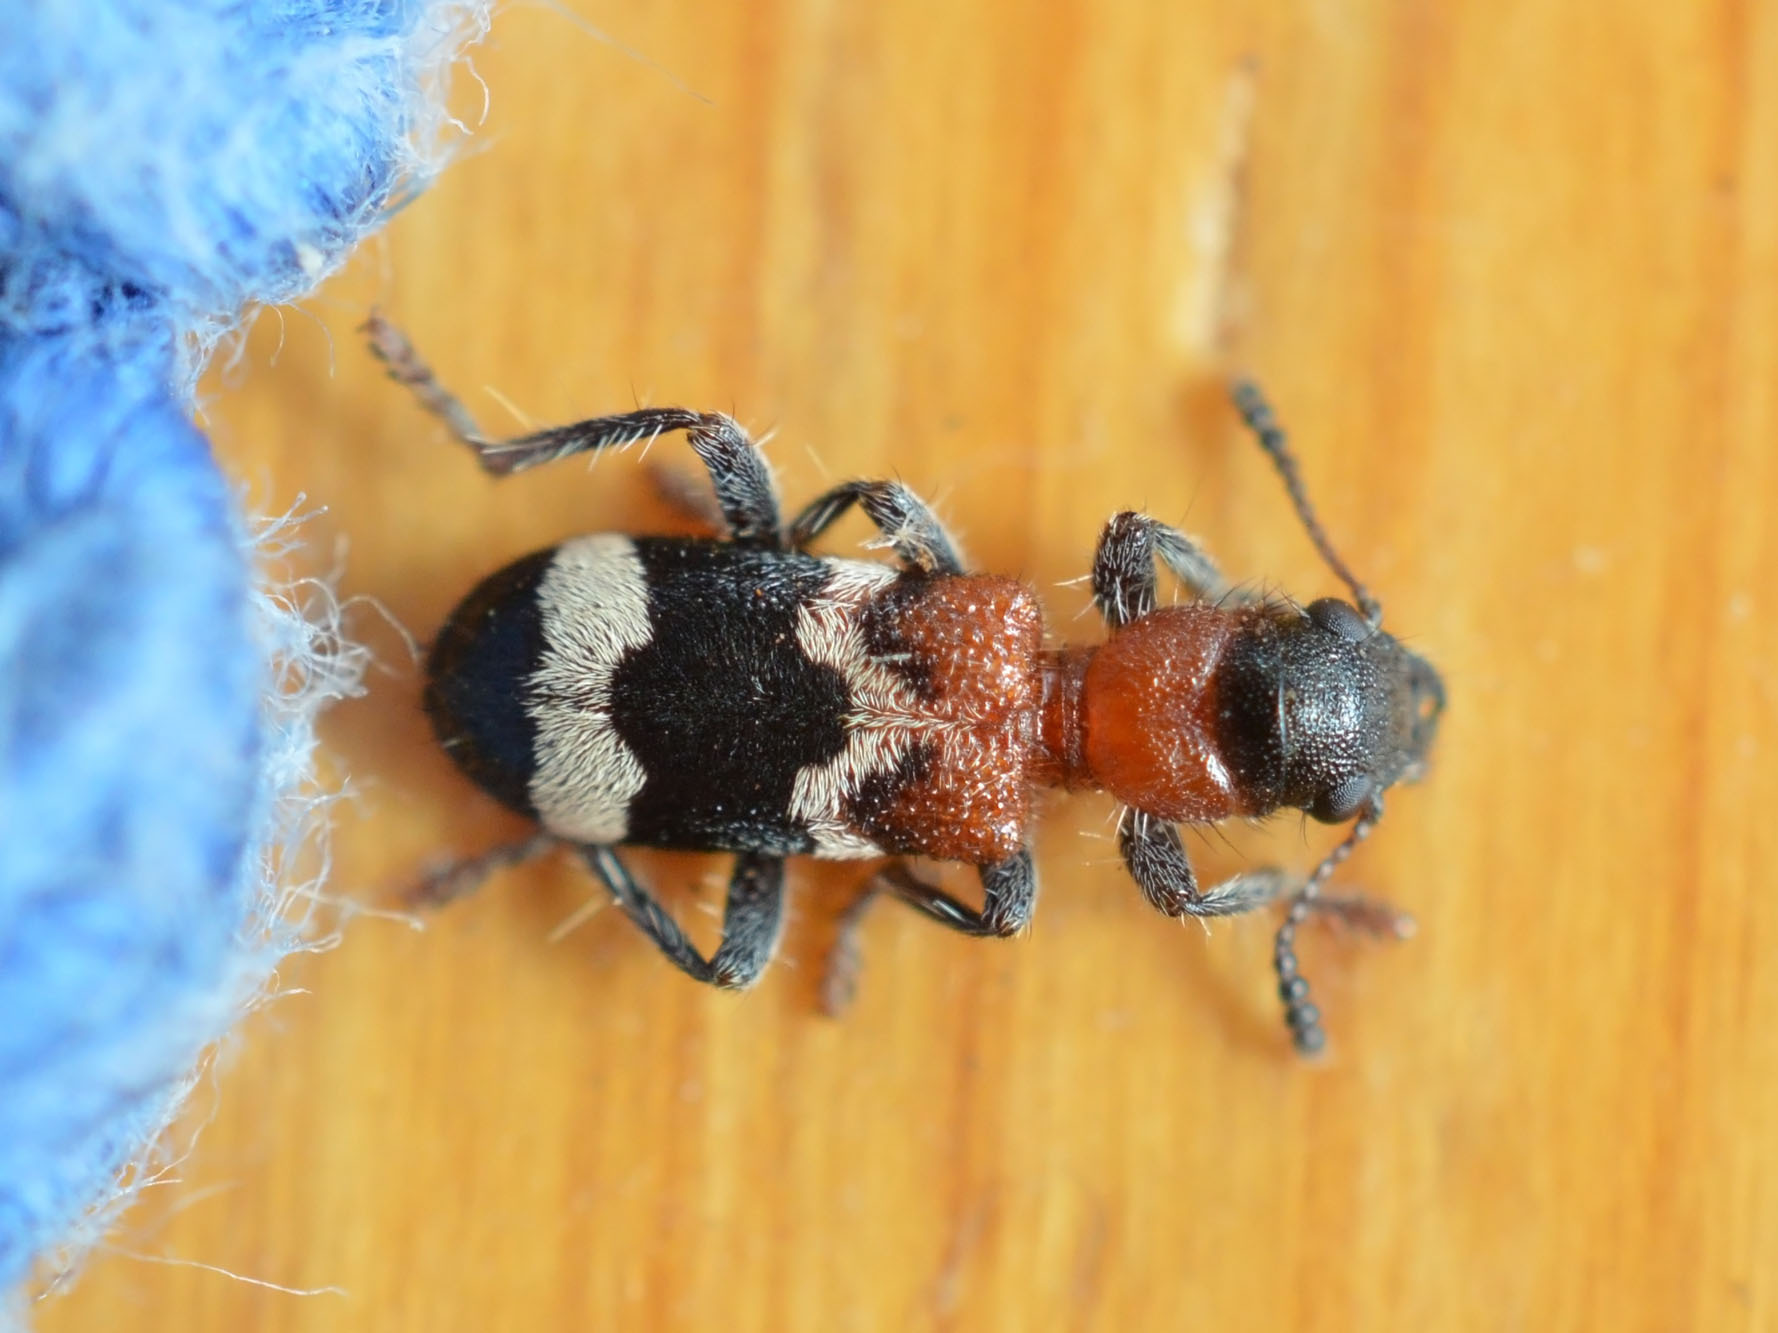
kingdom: Animalia
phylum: Arthropoda
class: Insecta
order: Coleoptera
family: Cleridae
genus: Thanasimus
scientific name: Thanasimus formicarius
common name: Ant beetle
